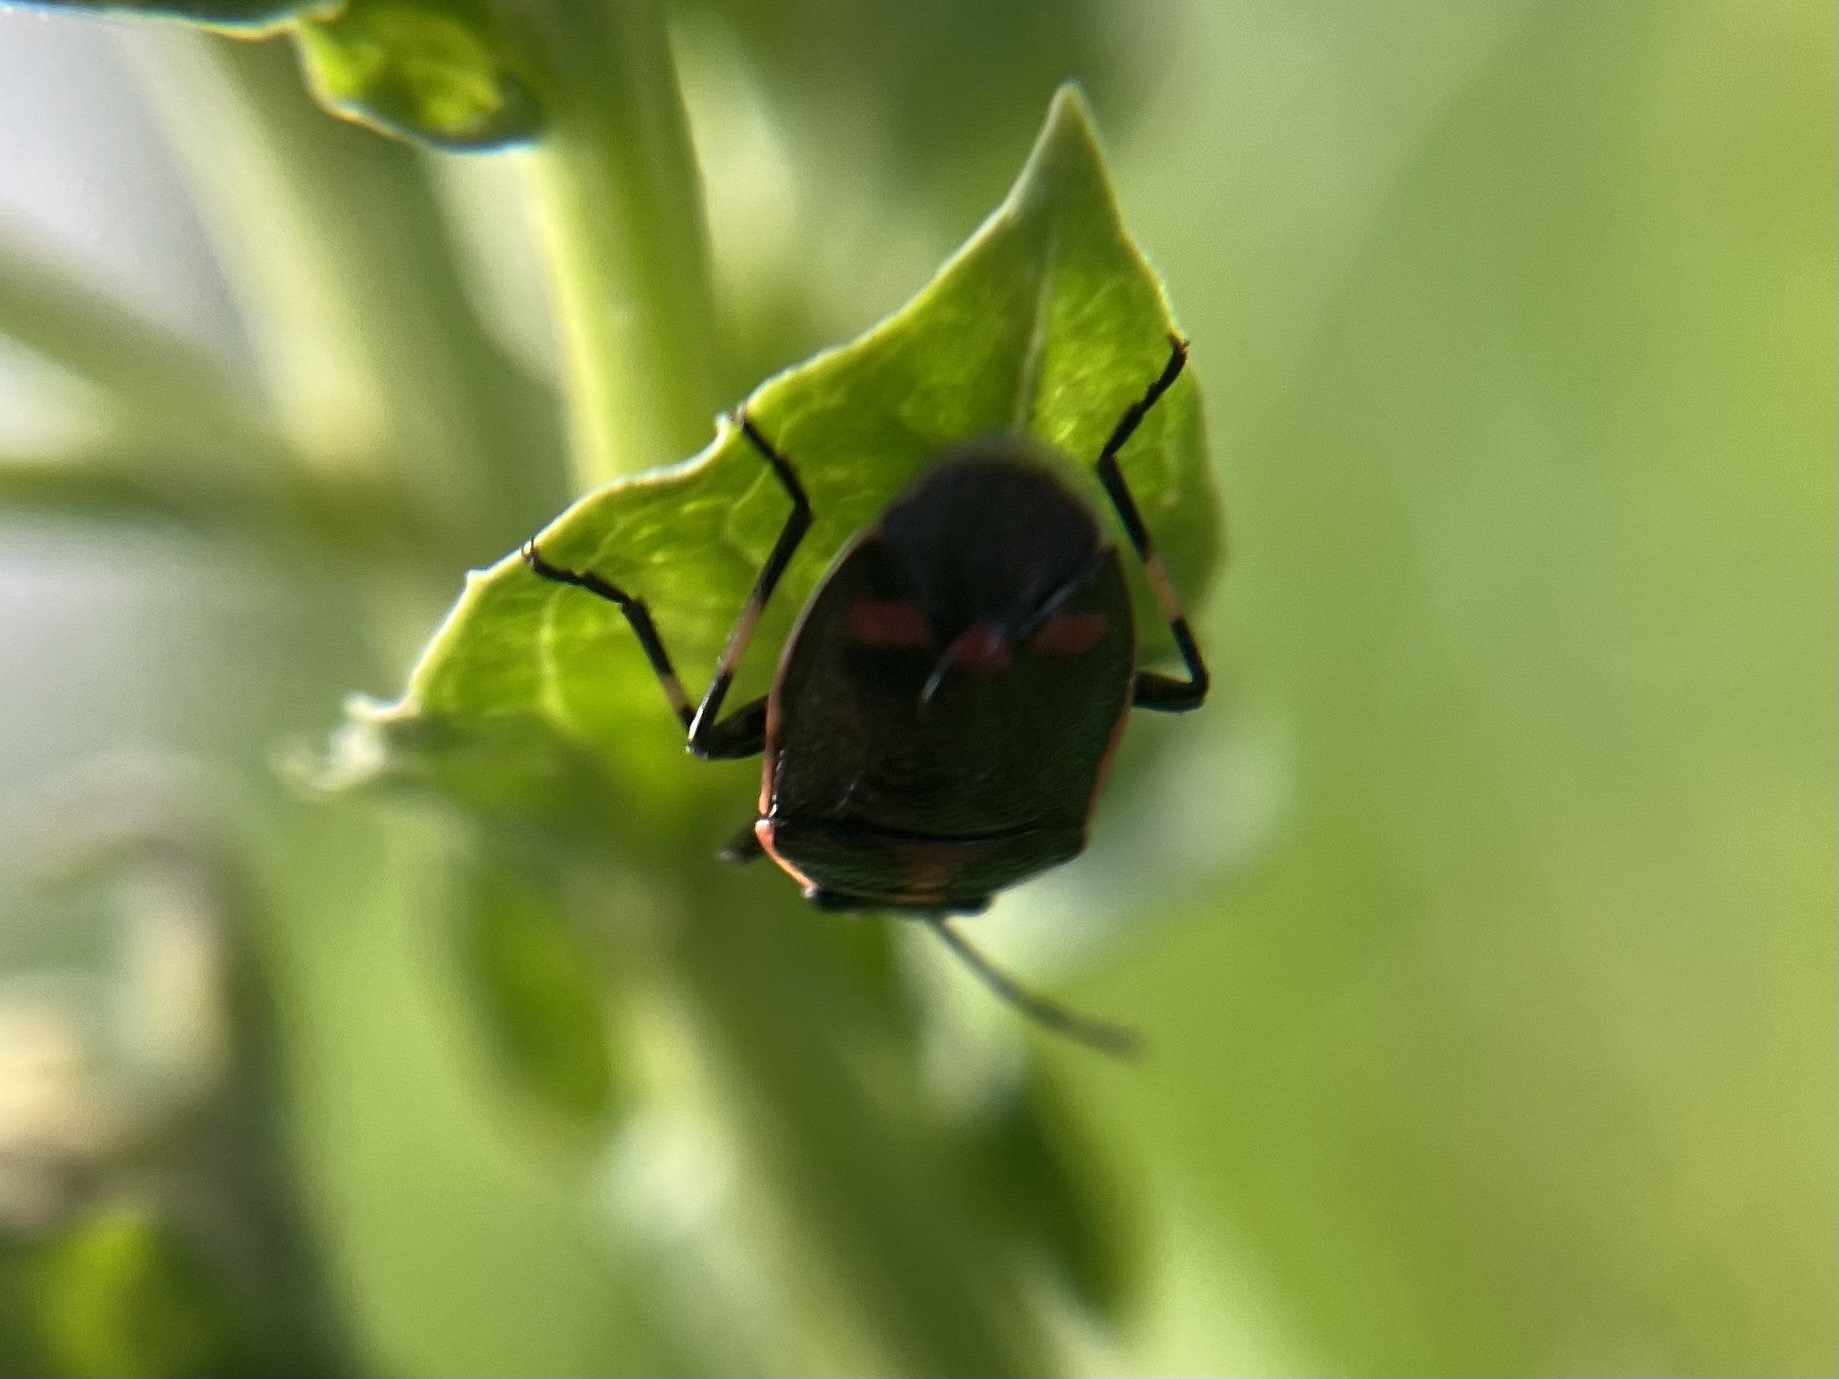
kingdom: Animalia
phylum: Arthropoda
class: Insecta
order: Hemiptera
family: Pentatomidae
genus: Eurydema
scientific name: Eurydema oleracea
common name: Cabbage bug
